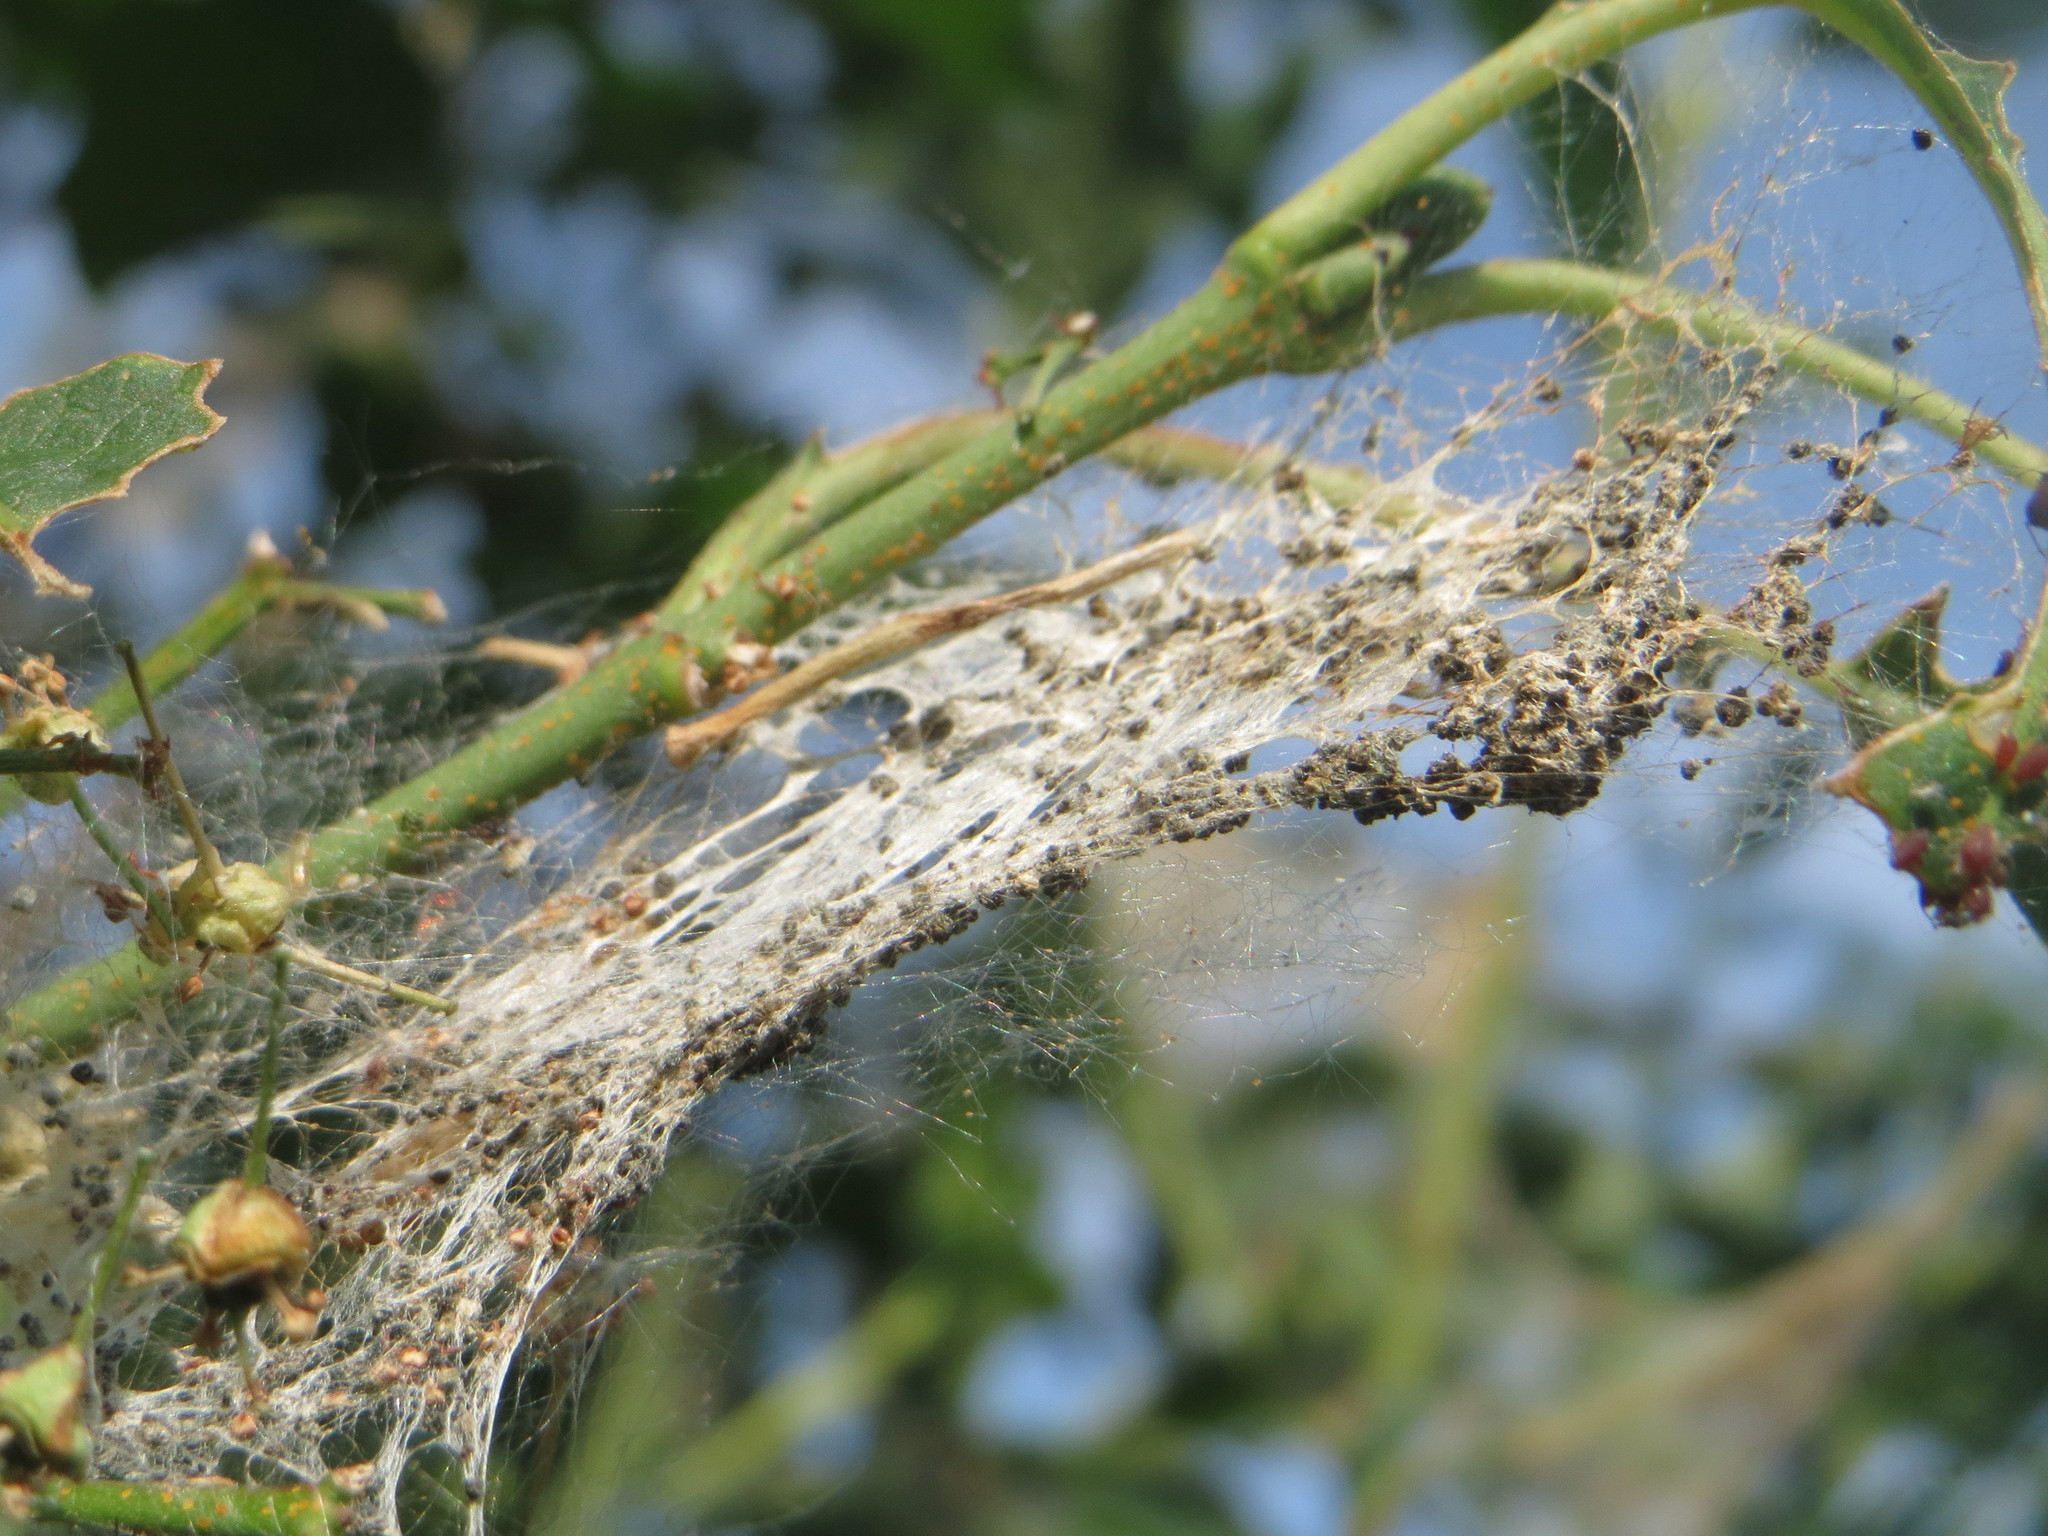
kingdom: Plantae
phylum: Tracheophyta
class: Magnoliopsida
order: Celastrales
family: Celastraceae
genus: Euonymus
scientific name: Euonymus europaeus
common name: Spindle
